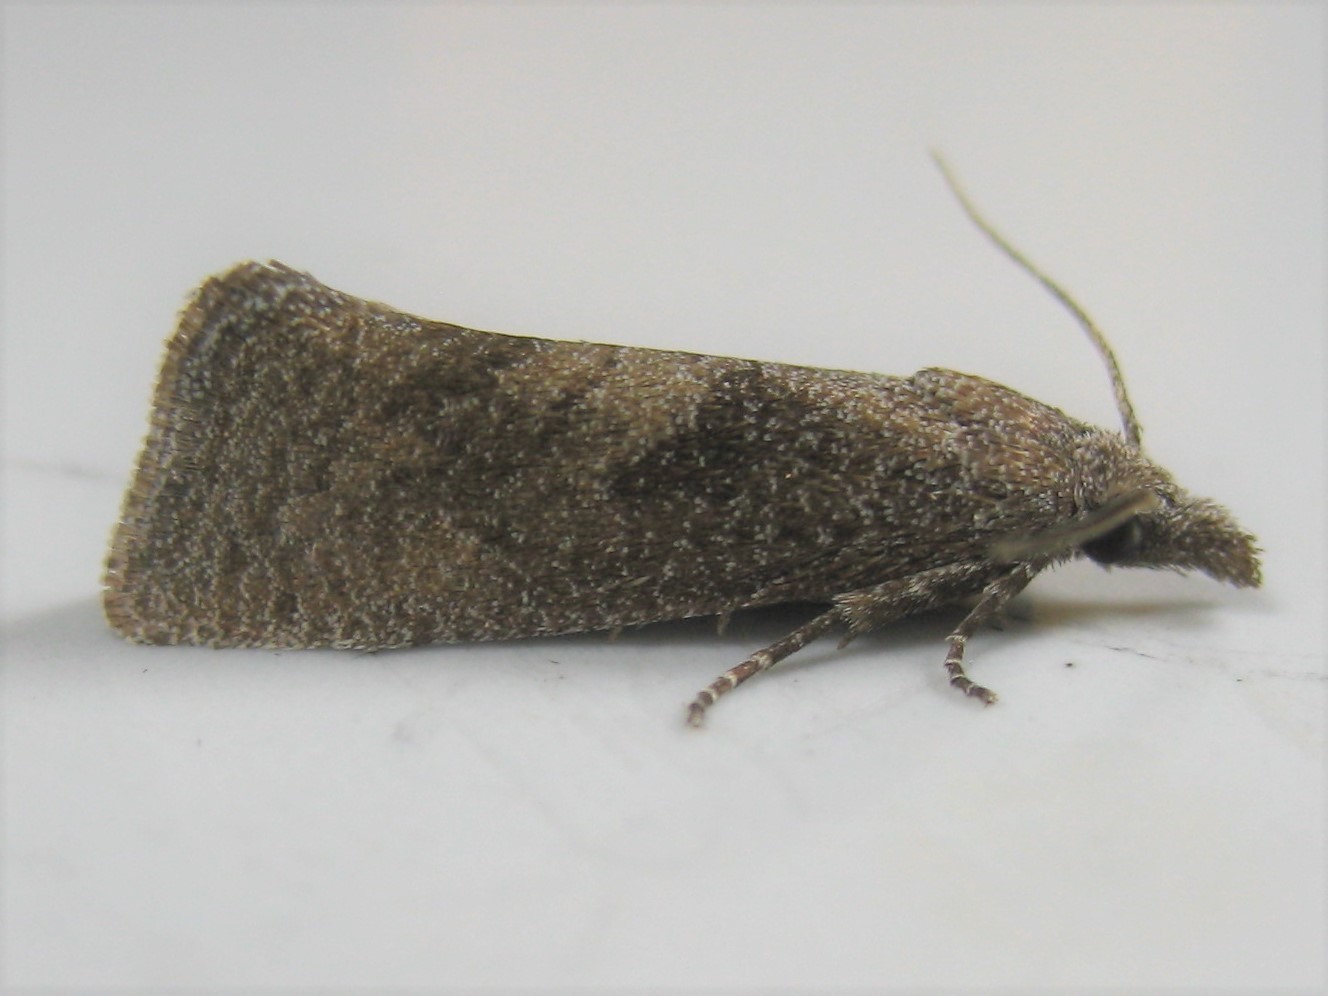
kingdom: Animalia
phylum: Arthropoda
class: Insecta
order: Lepidoptera
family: Tortricidae
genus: Pelochrista
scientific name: Pelochrista nandana
